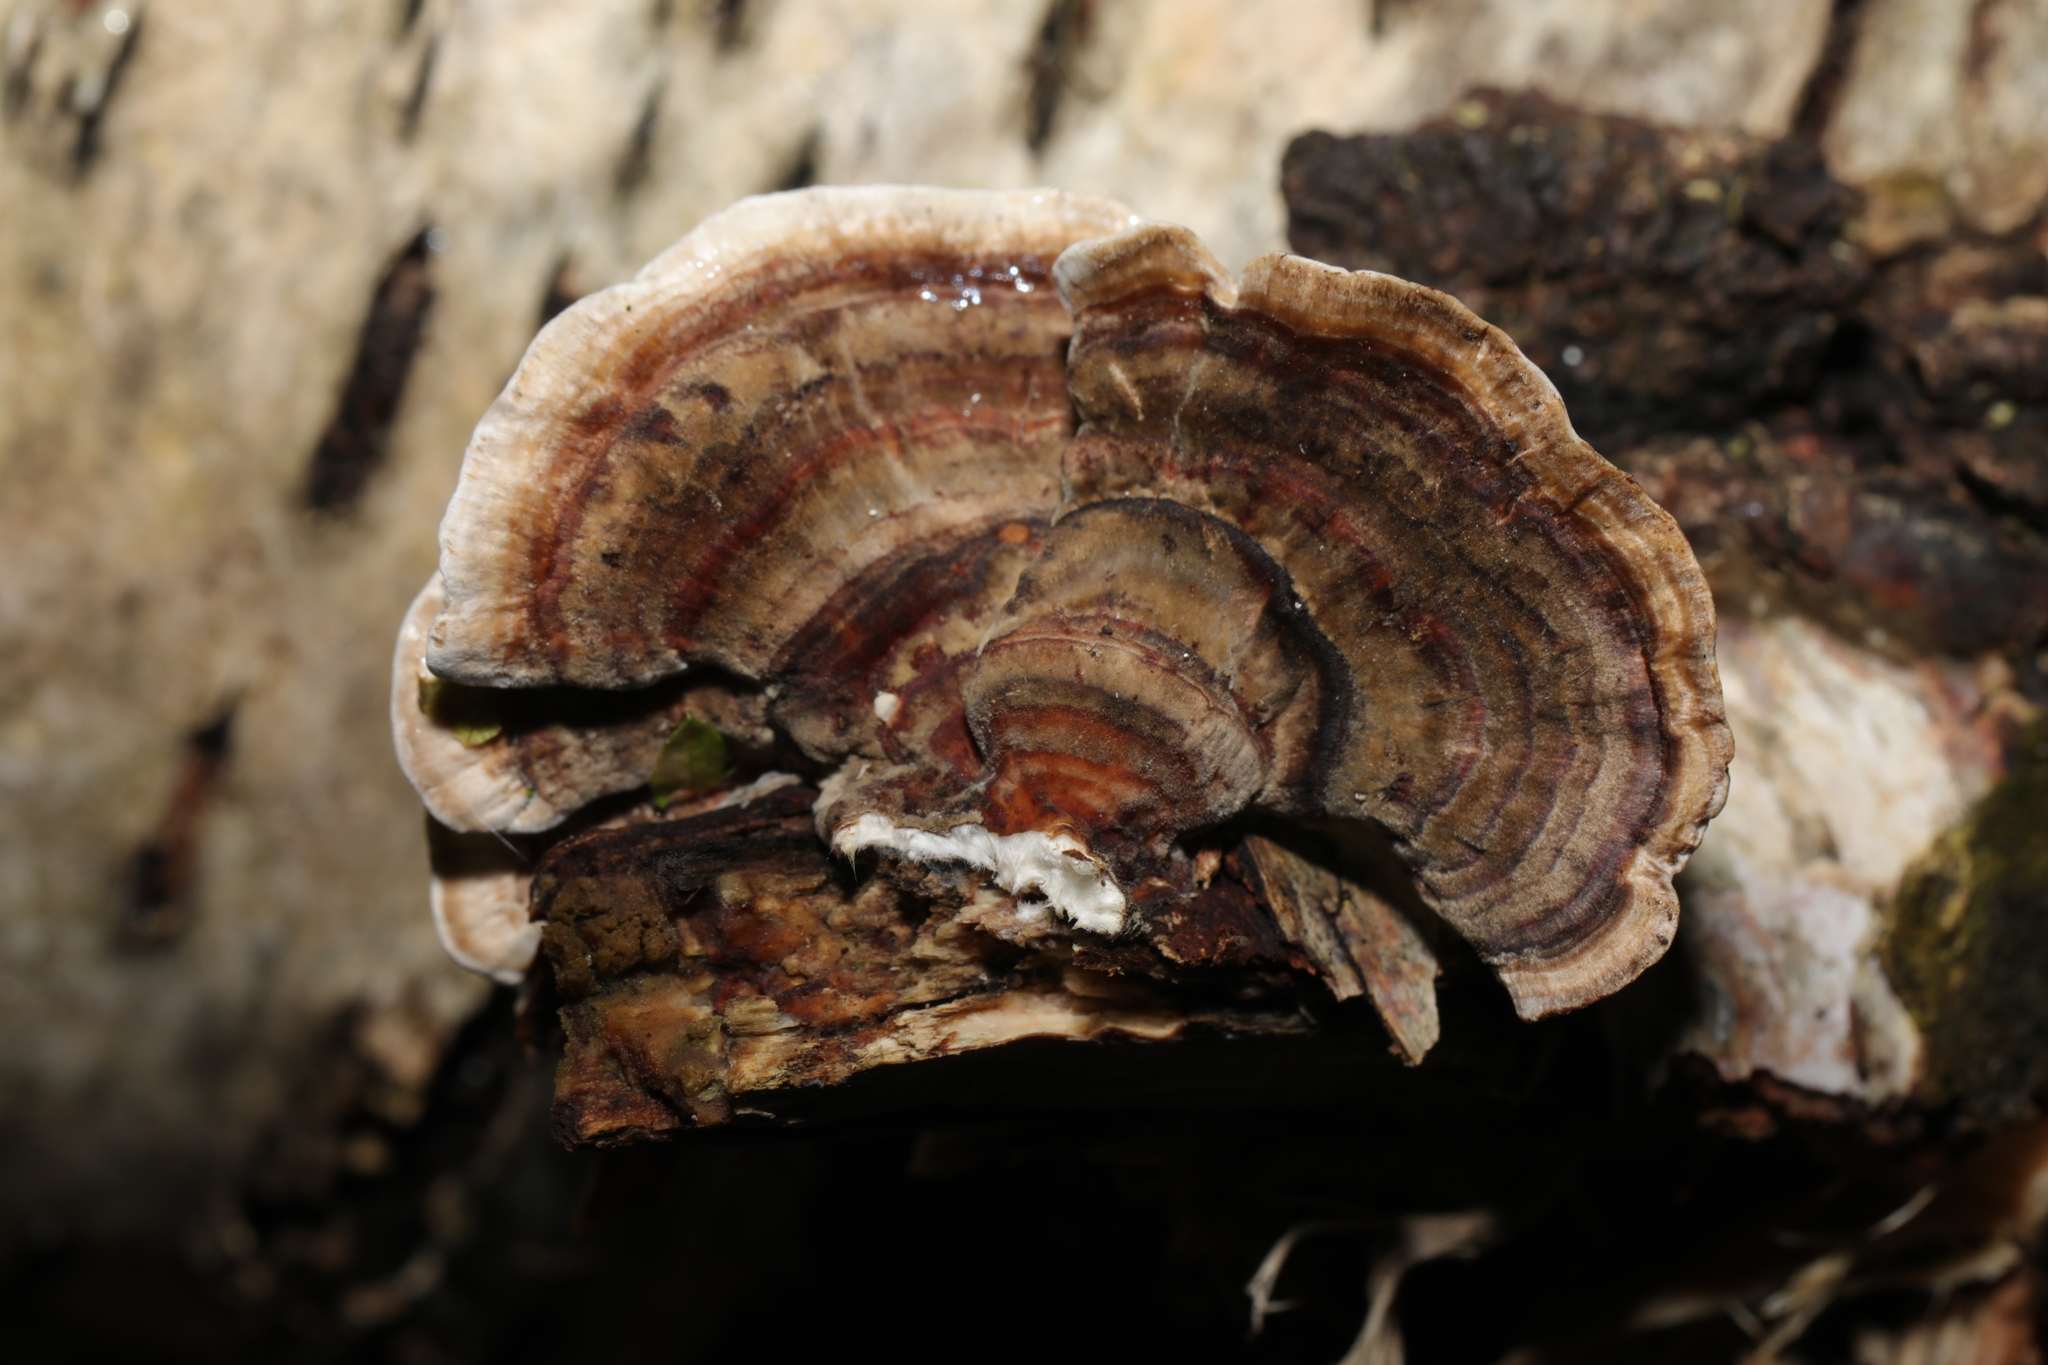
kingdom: Fungi
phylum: Basidiomycota
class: Agaricomycetes
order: Polyporales
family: Polyporaceae
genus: Trametes
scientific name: Trametes versicolor
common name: Turkeytail
